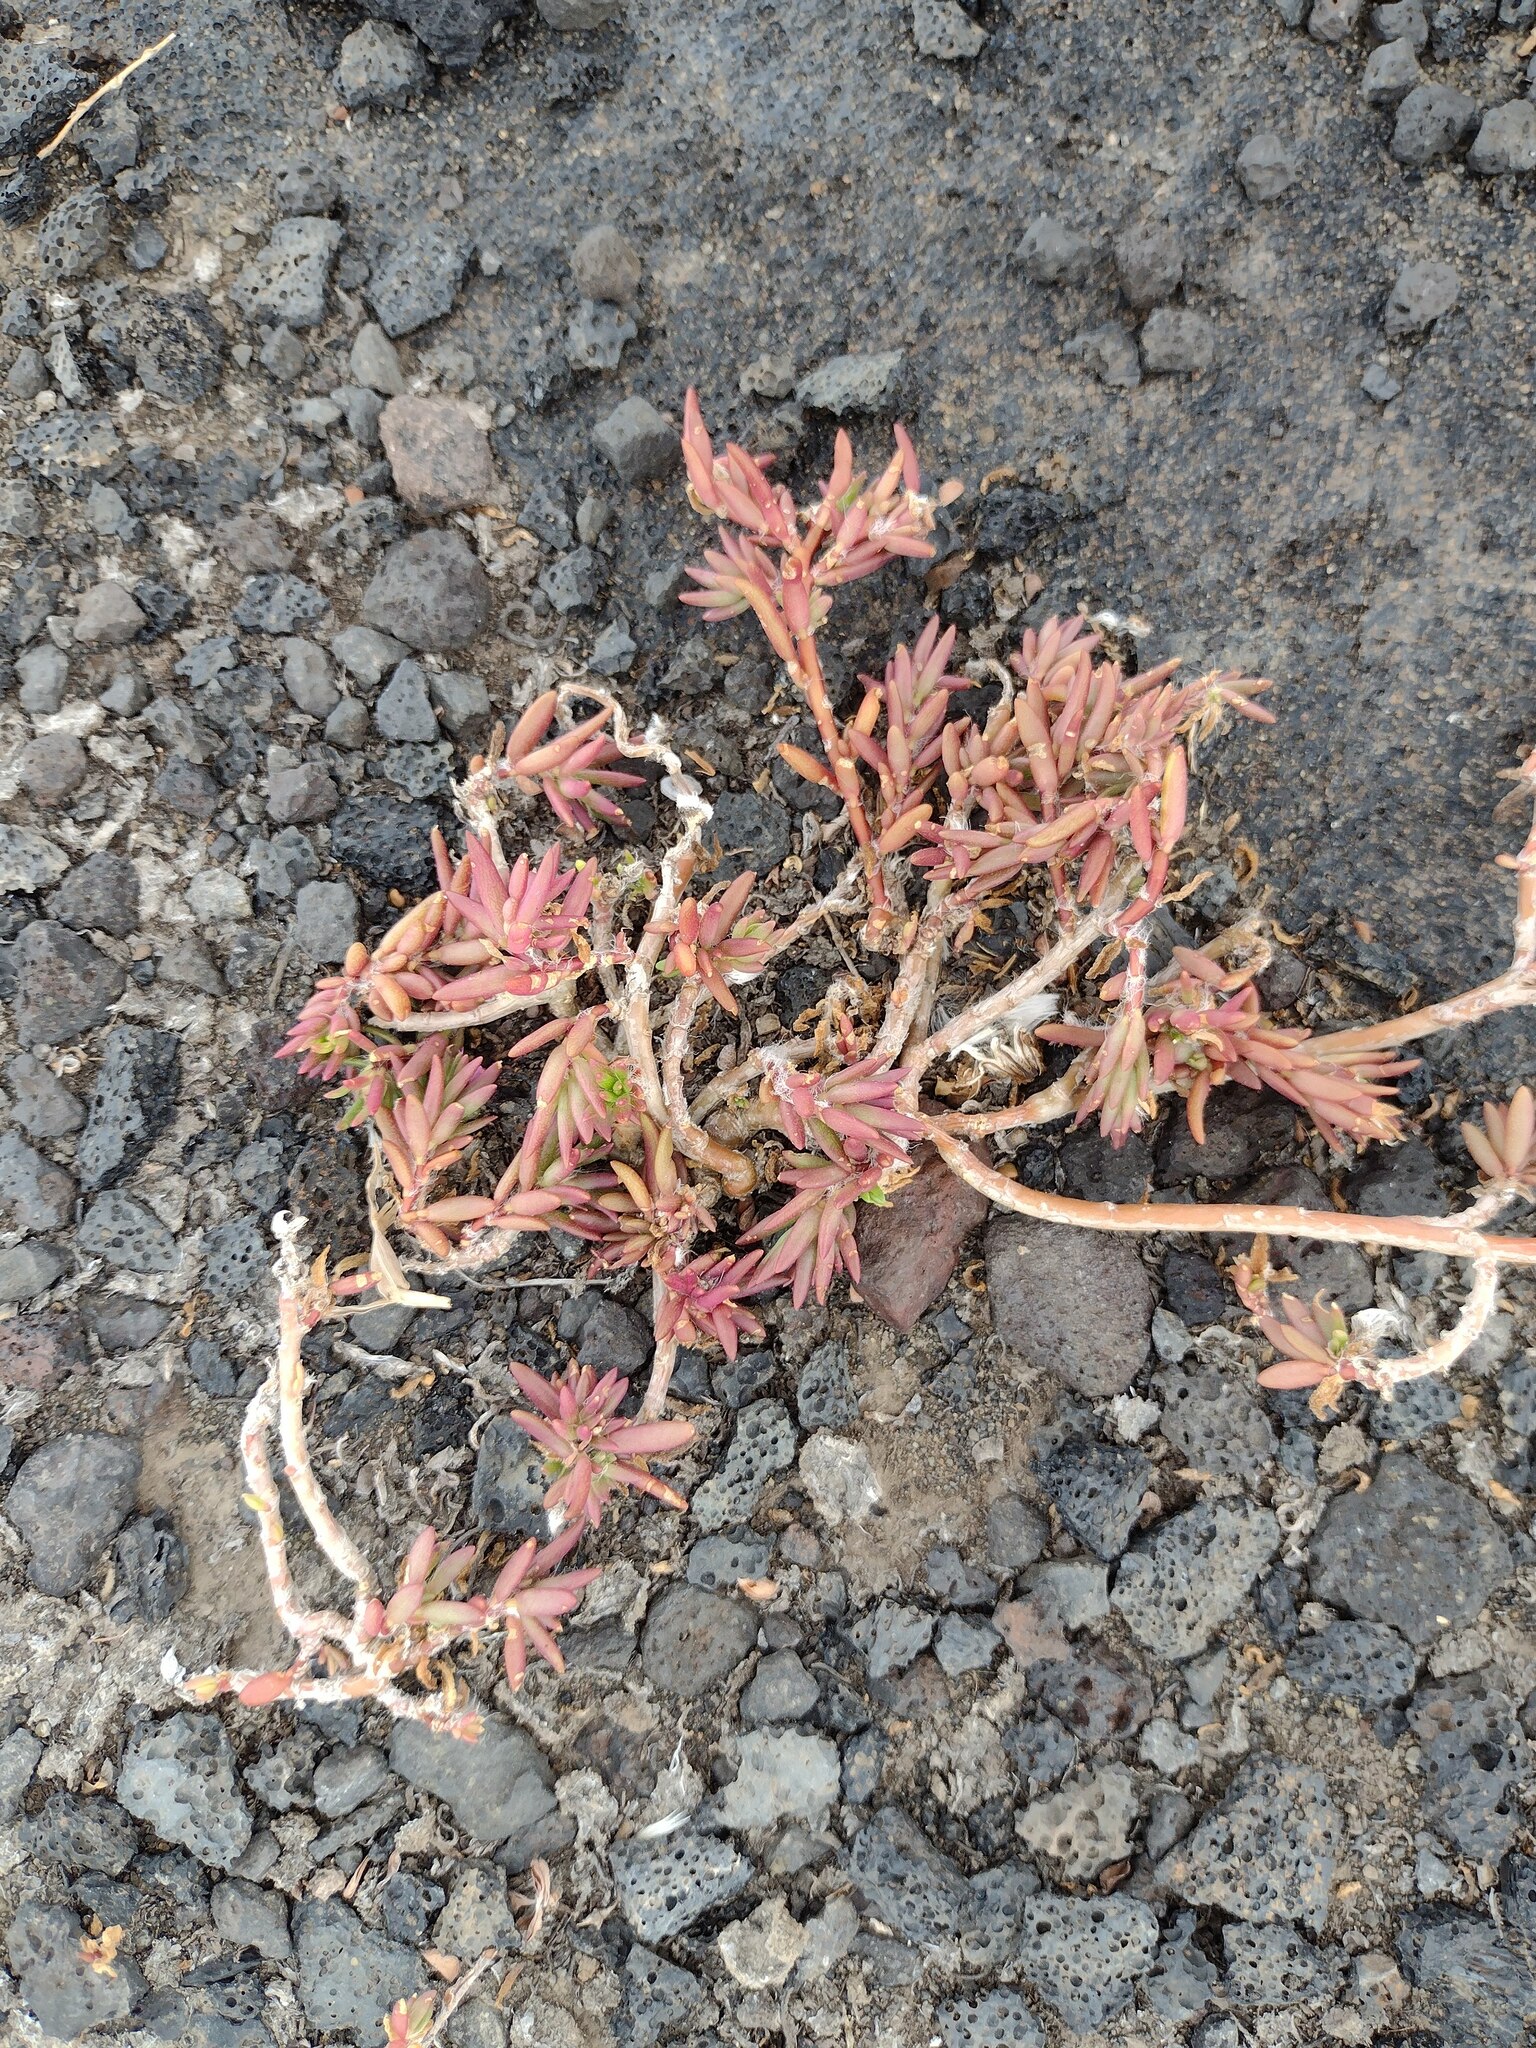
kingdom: Plantae
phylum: Tracheophyta
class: Magnoliopsida
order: Caryophyllales
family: Portulacaceae
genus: Portulaca
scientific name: Portulaca pilosa
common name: Kiss me quick
